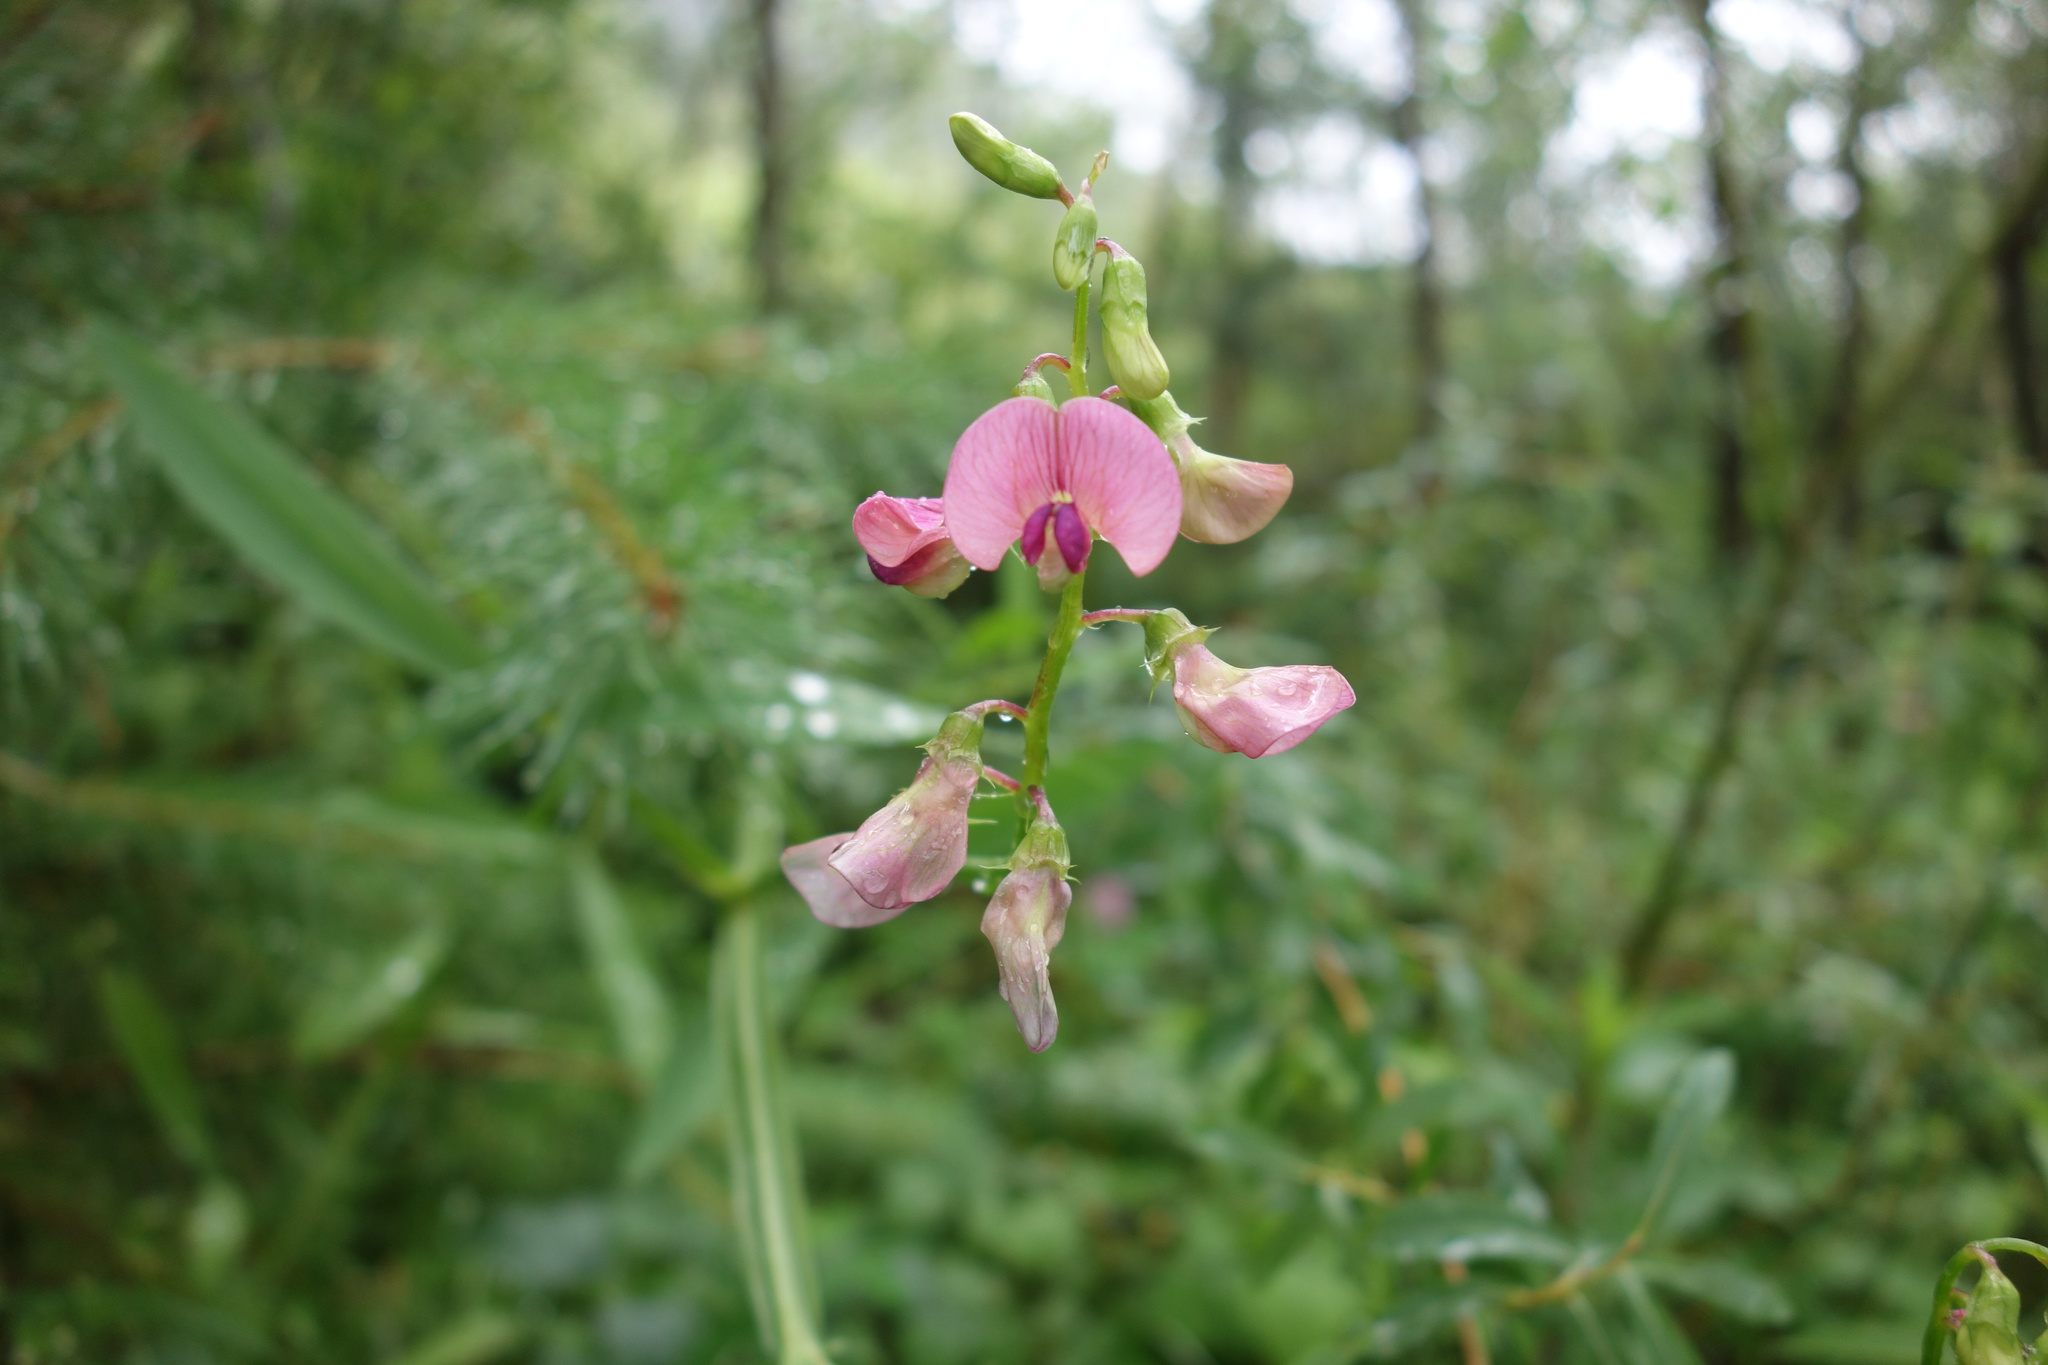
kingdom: Plantae
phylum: Tracheophyta
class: Magnoliopsida
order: Fabales
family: Fabaceae
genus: Lathyrus
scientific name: Lathyrus sylvestris
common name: Flat pea
